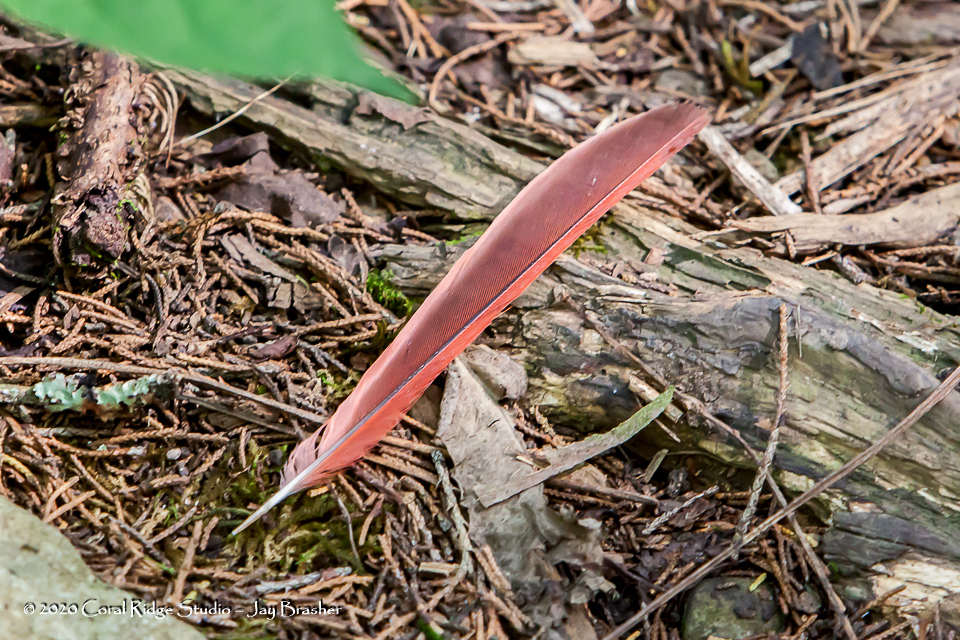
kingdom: Animalia
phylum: Chordata
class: Aves
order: Passeriformes
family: Cardinalidae
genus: Cardinalis
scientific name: Cardinalis cardinalis
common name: Northern cardinal
